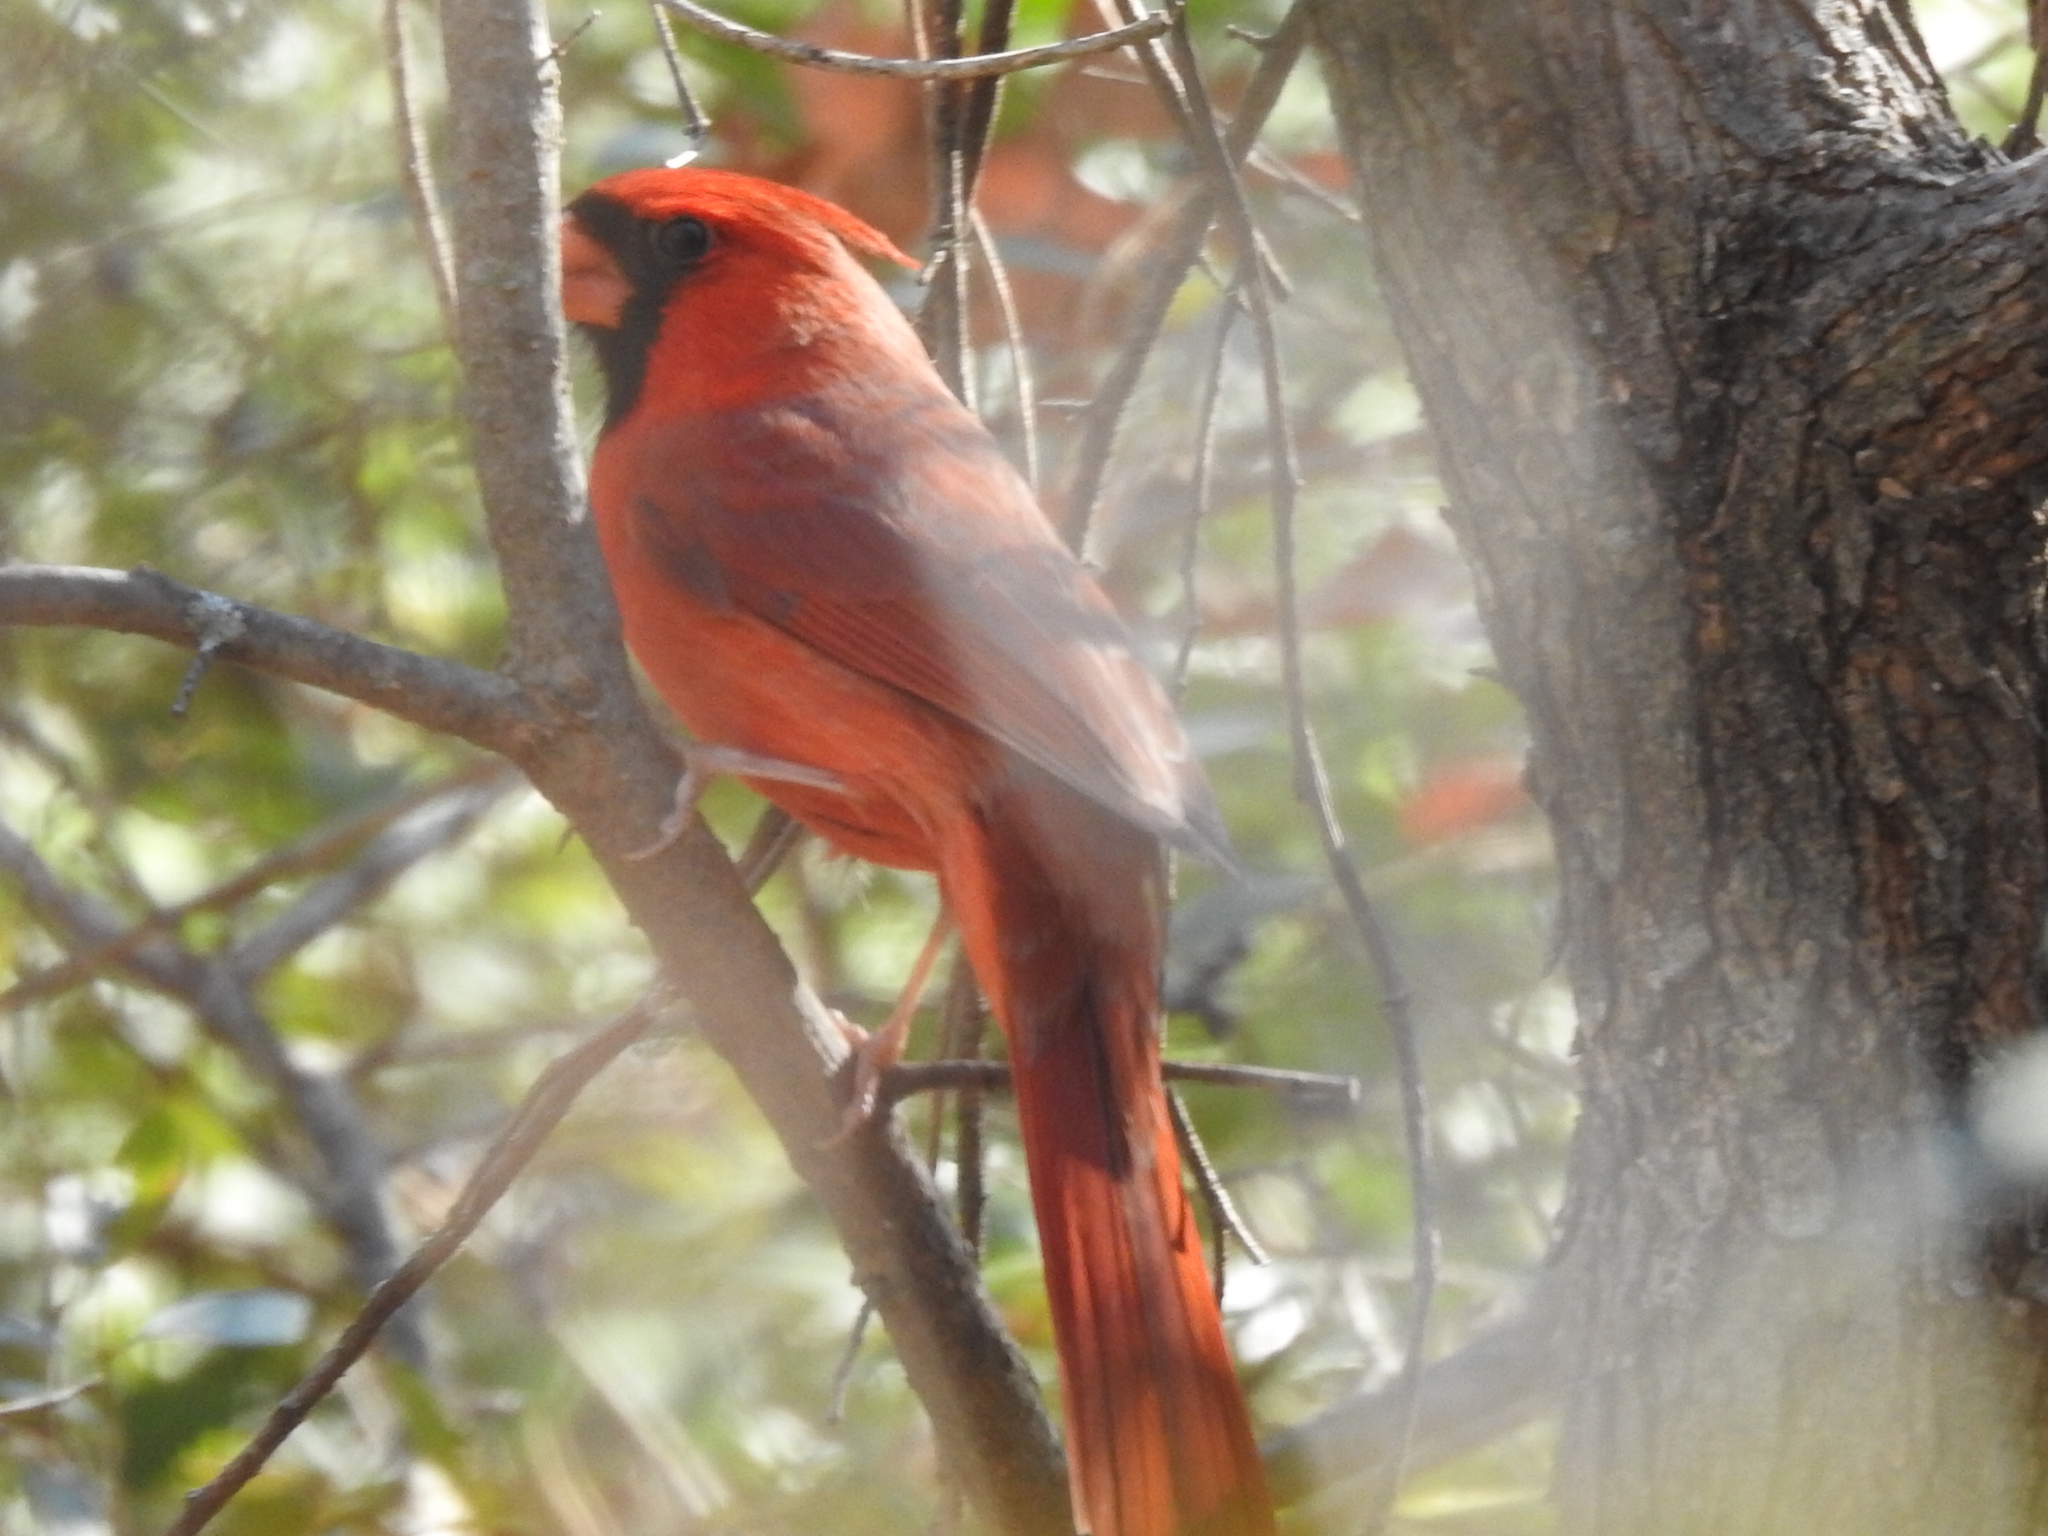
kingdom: Animalia
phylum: Chordata
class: Aves
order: Passeriformes
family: Cardinalidae
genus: Cardinalis
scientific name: Cardinalis cardinalis
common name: Northern cardinal
